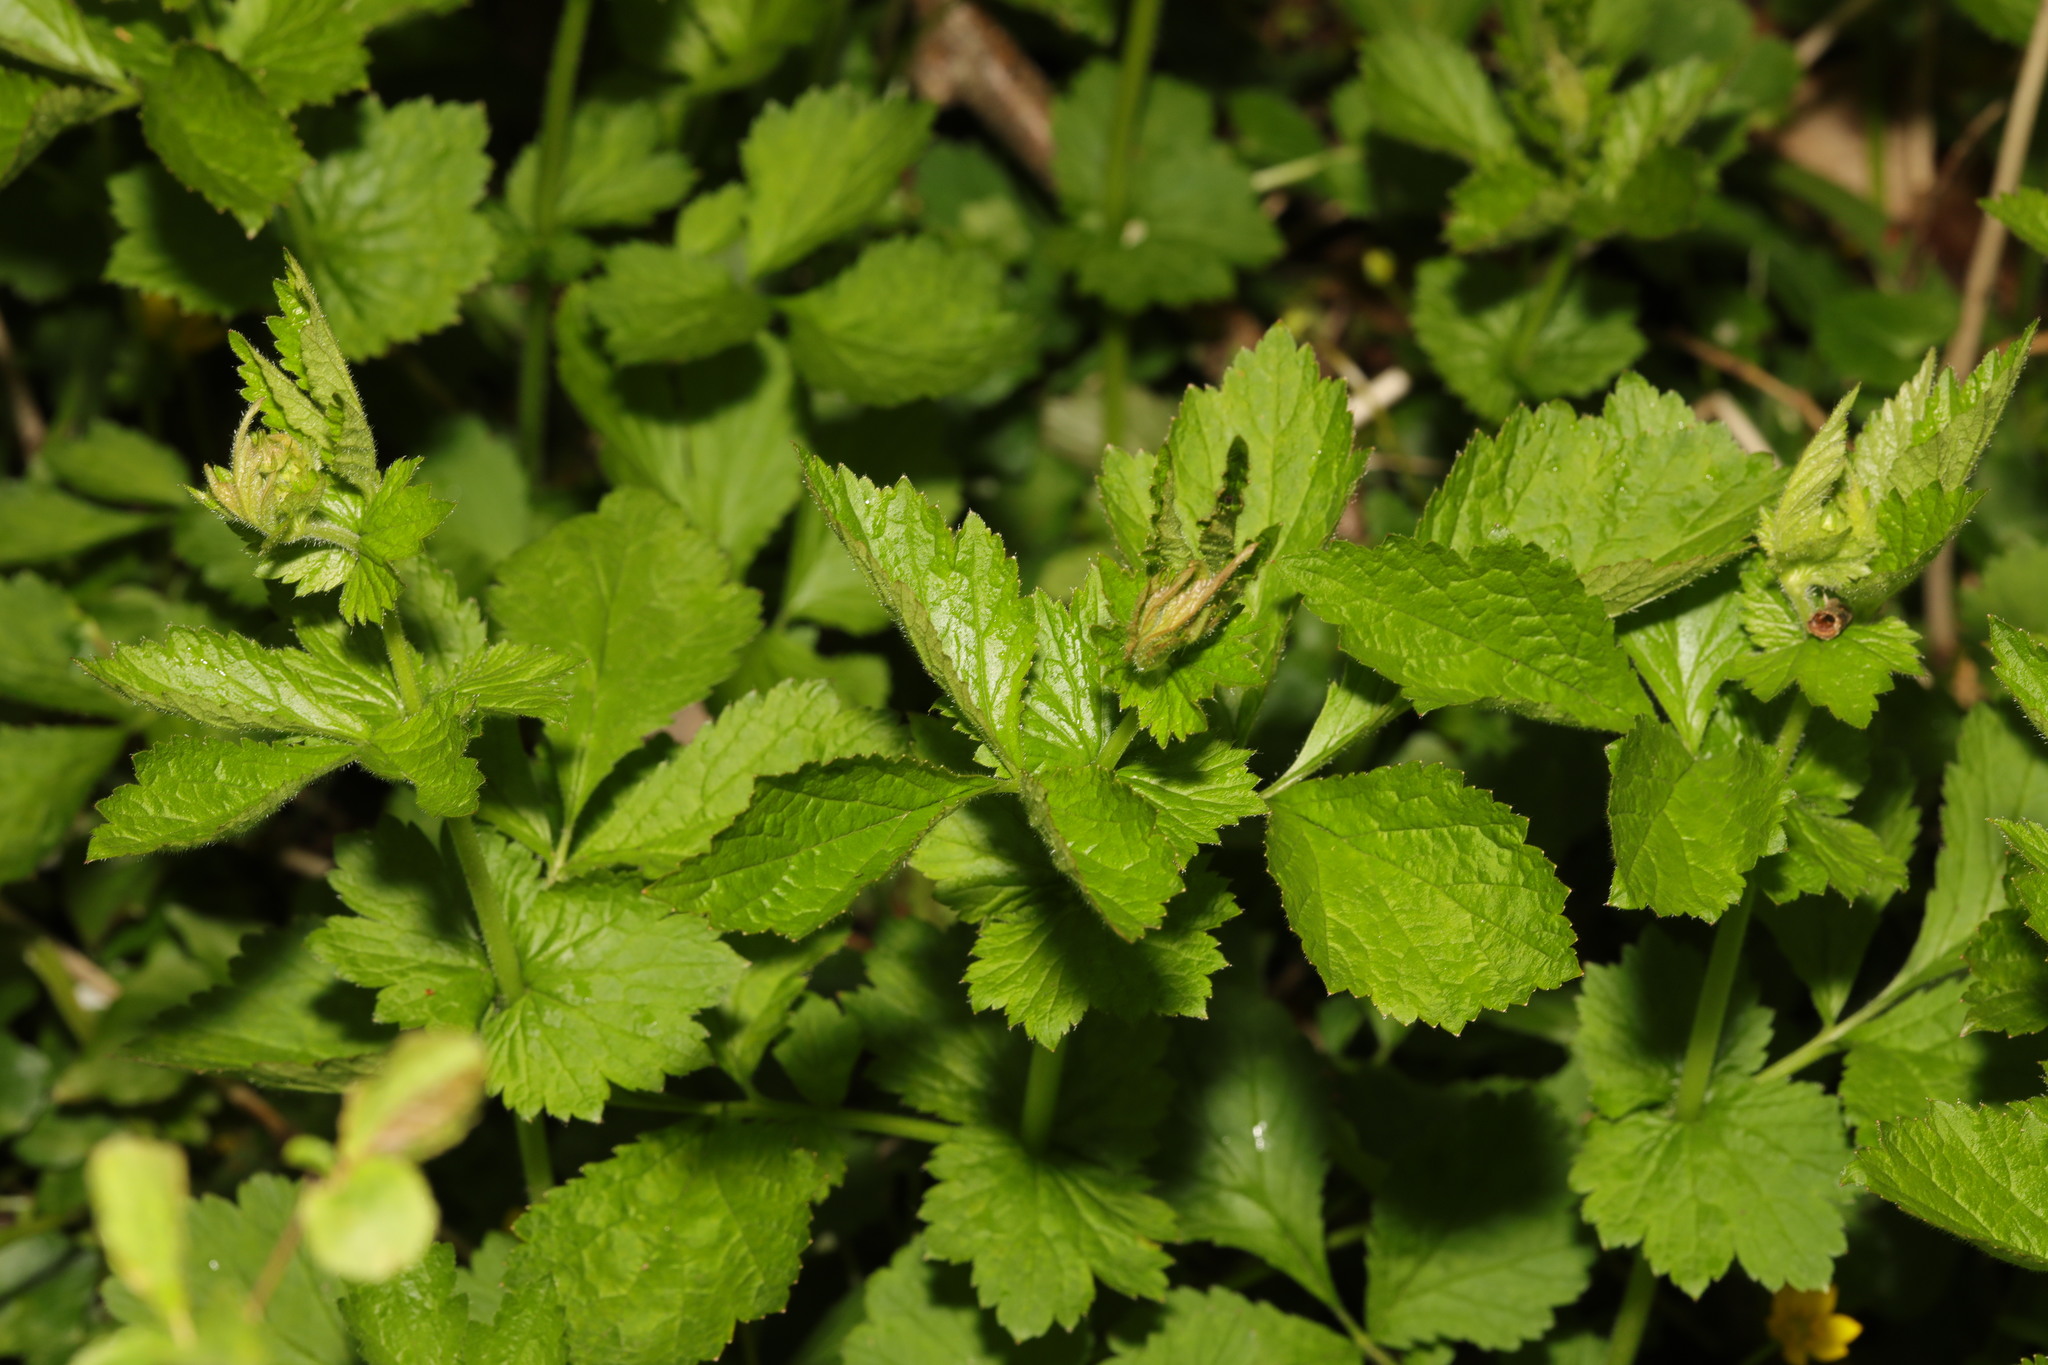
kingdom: Plantae
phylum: Tracheophyta
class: Magnoliopsida
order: Rosales
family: Rosaceae
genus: Geum
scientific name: Geum urbanum
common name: Wood avens
